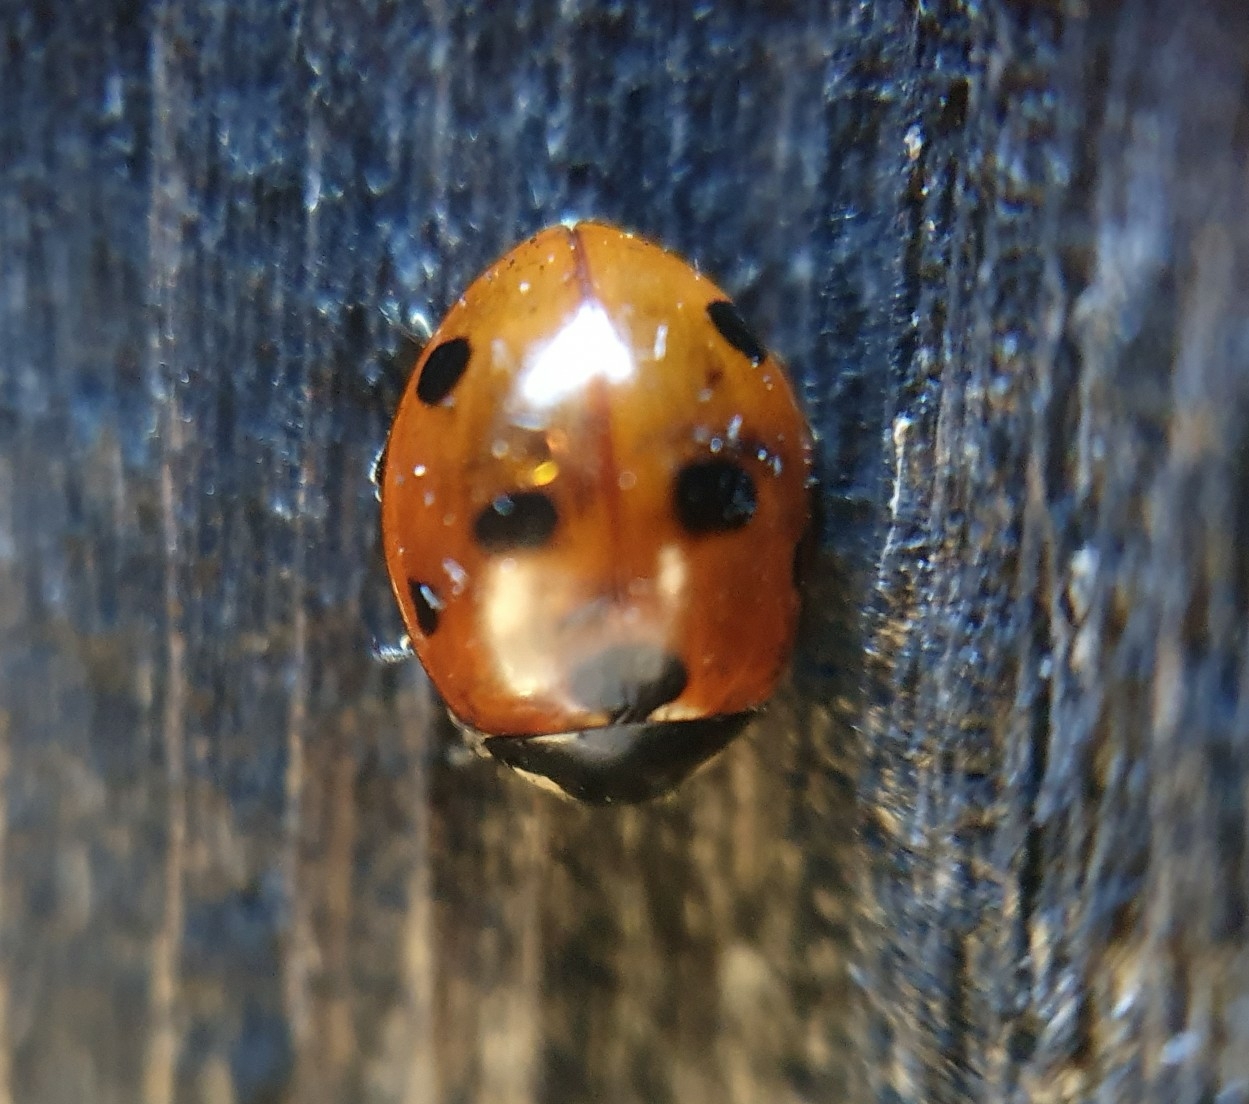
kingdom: Animalia
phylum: Arthropoda
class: Insecta
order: Coleoptera
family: Coccinellidae
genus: Coccinella
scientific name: Coccinella septempunctata
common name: Sevenspotted lady beetle
